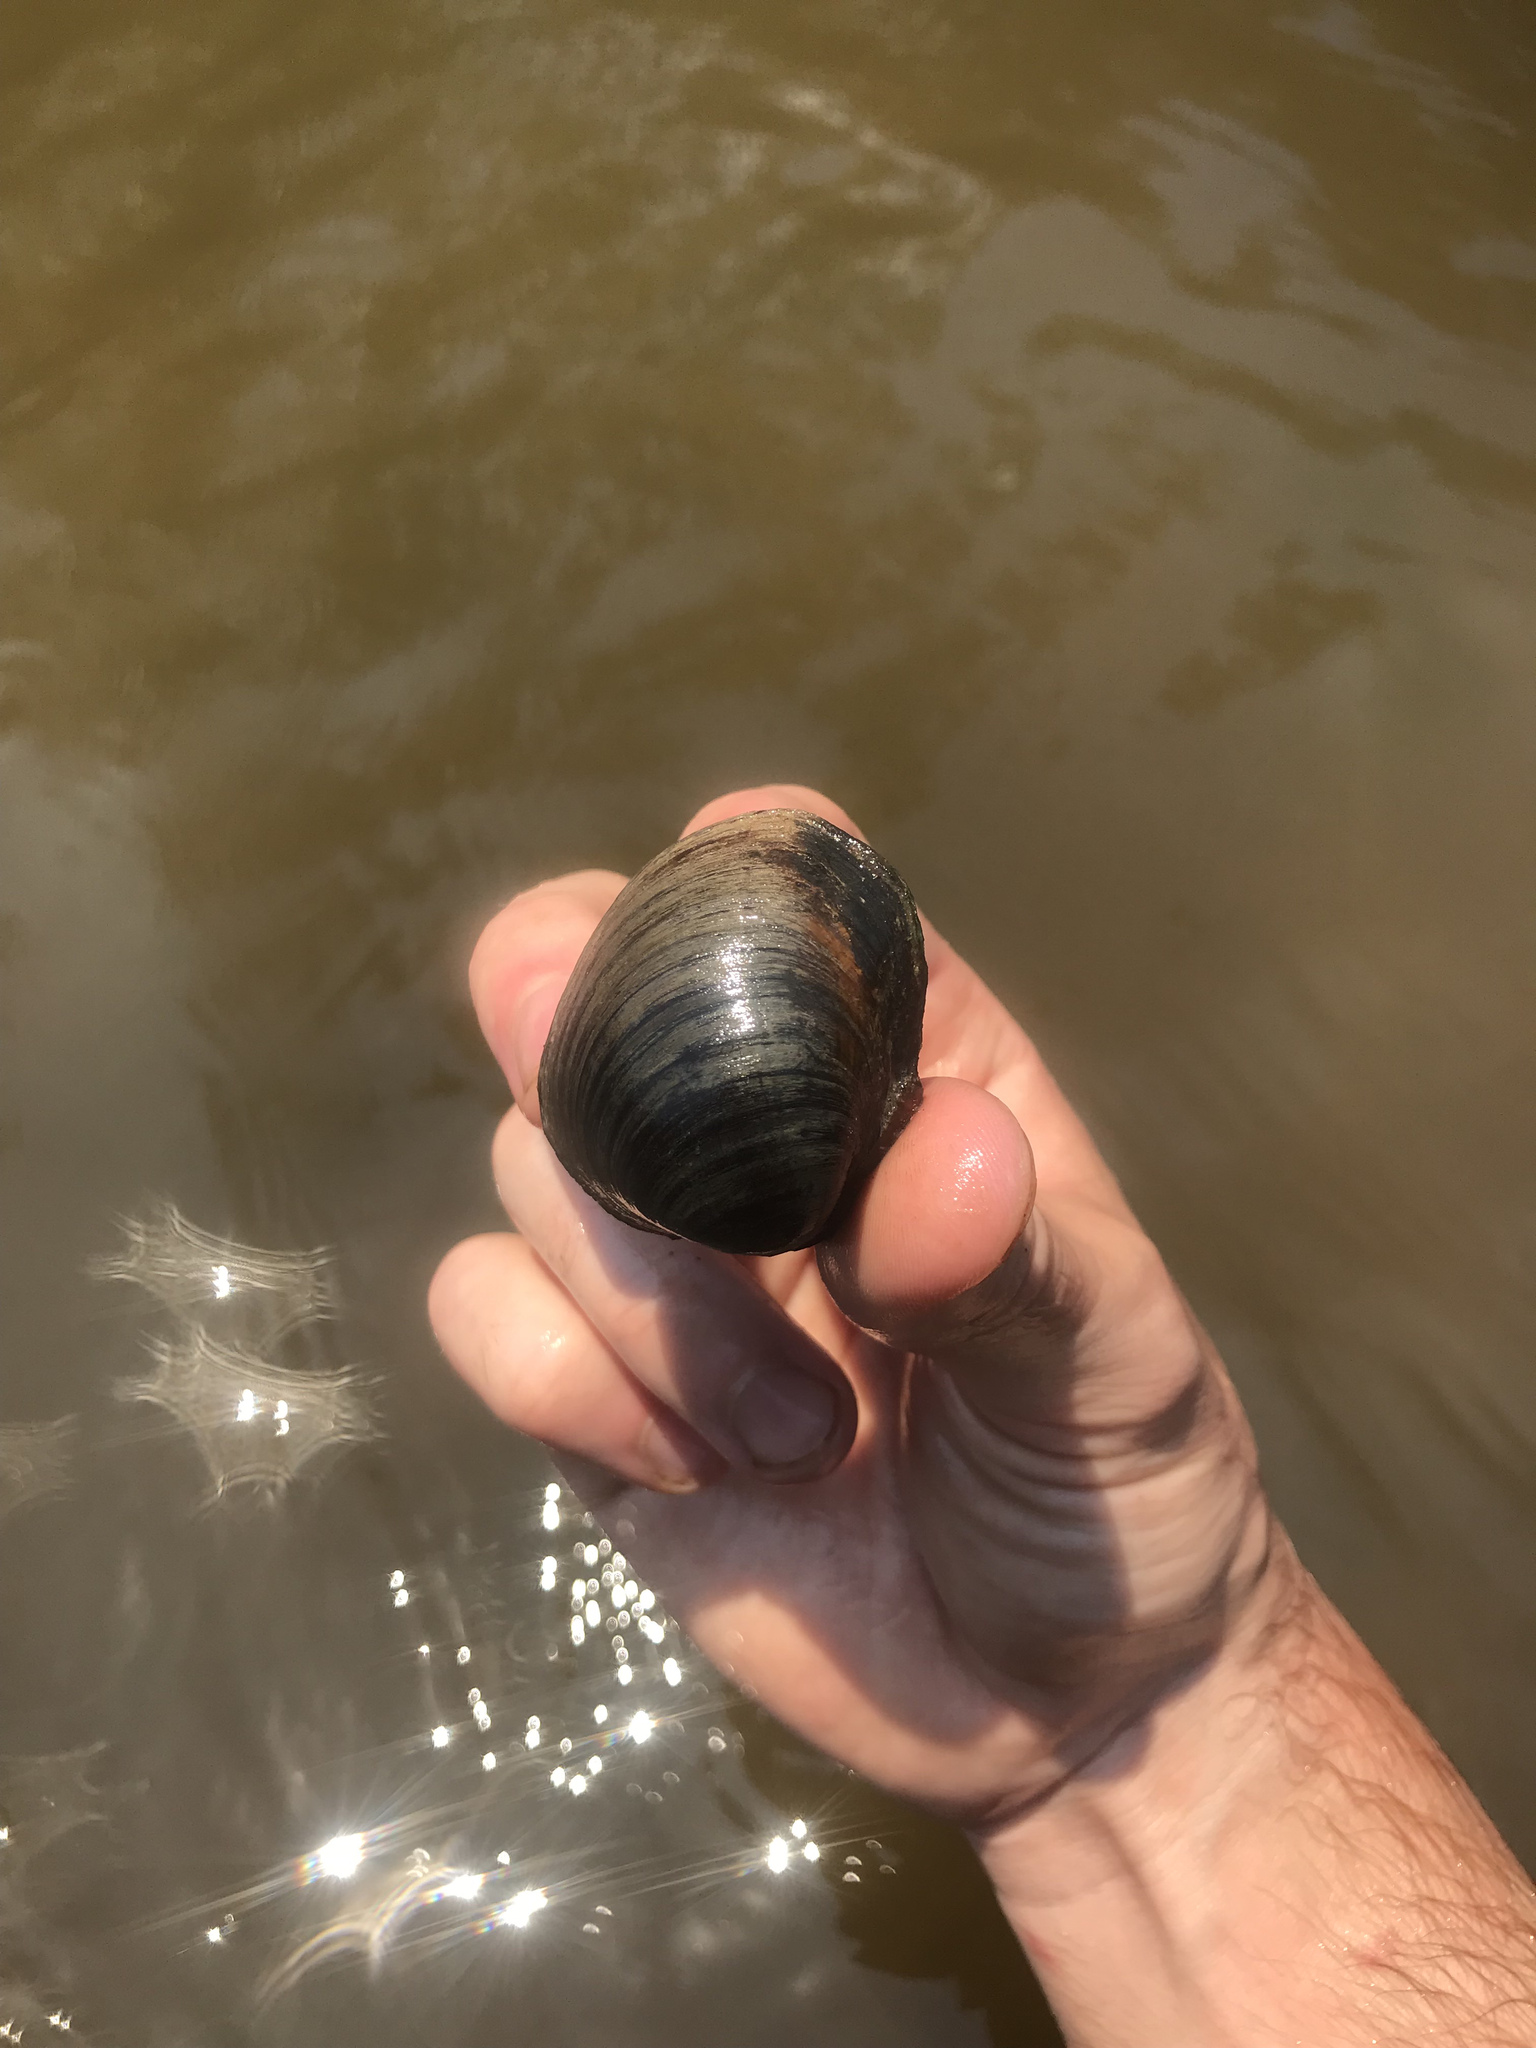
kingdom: Animalia
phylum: Mollusca
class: Bivalvia
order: Unionida
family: Unionidae
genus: Obovaria
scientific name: Obovaria arkansasensis
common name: Southern hickorynut
